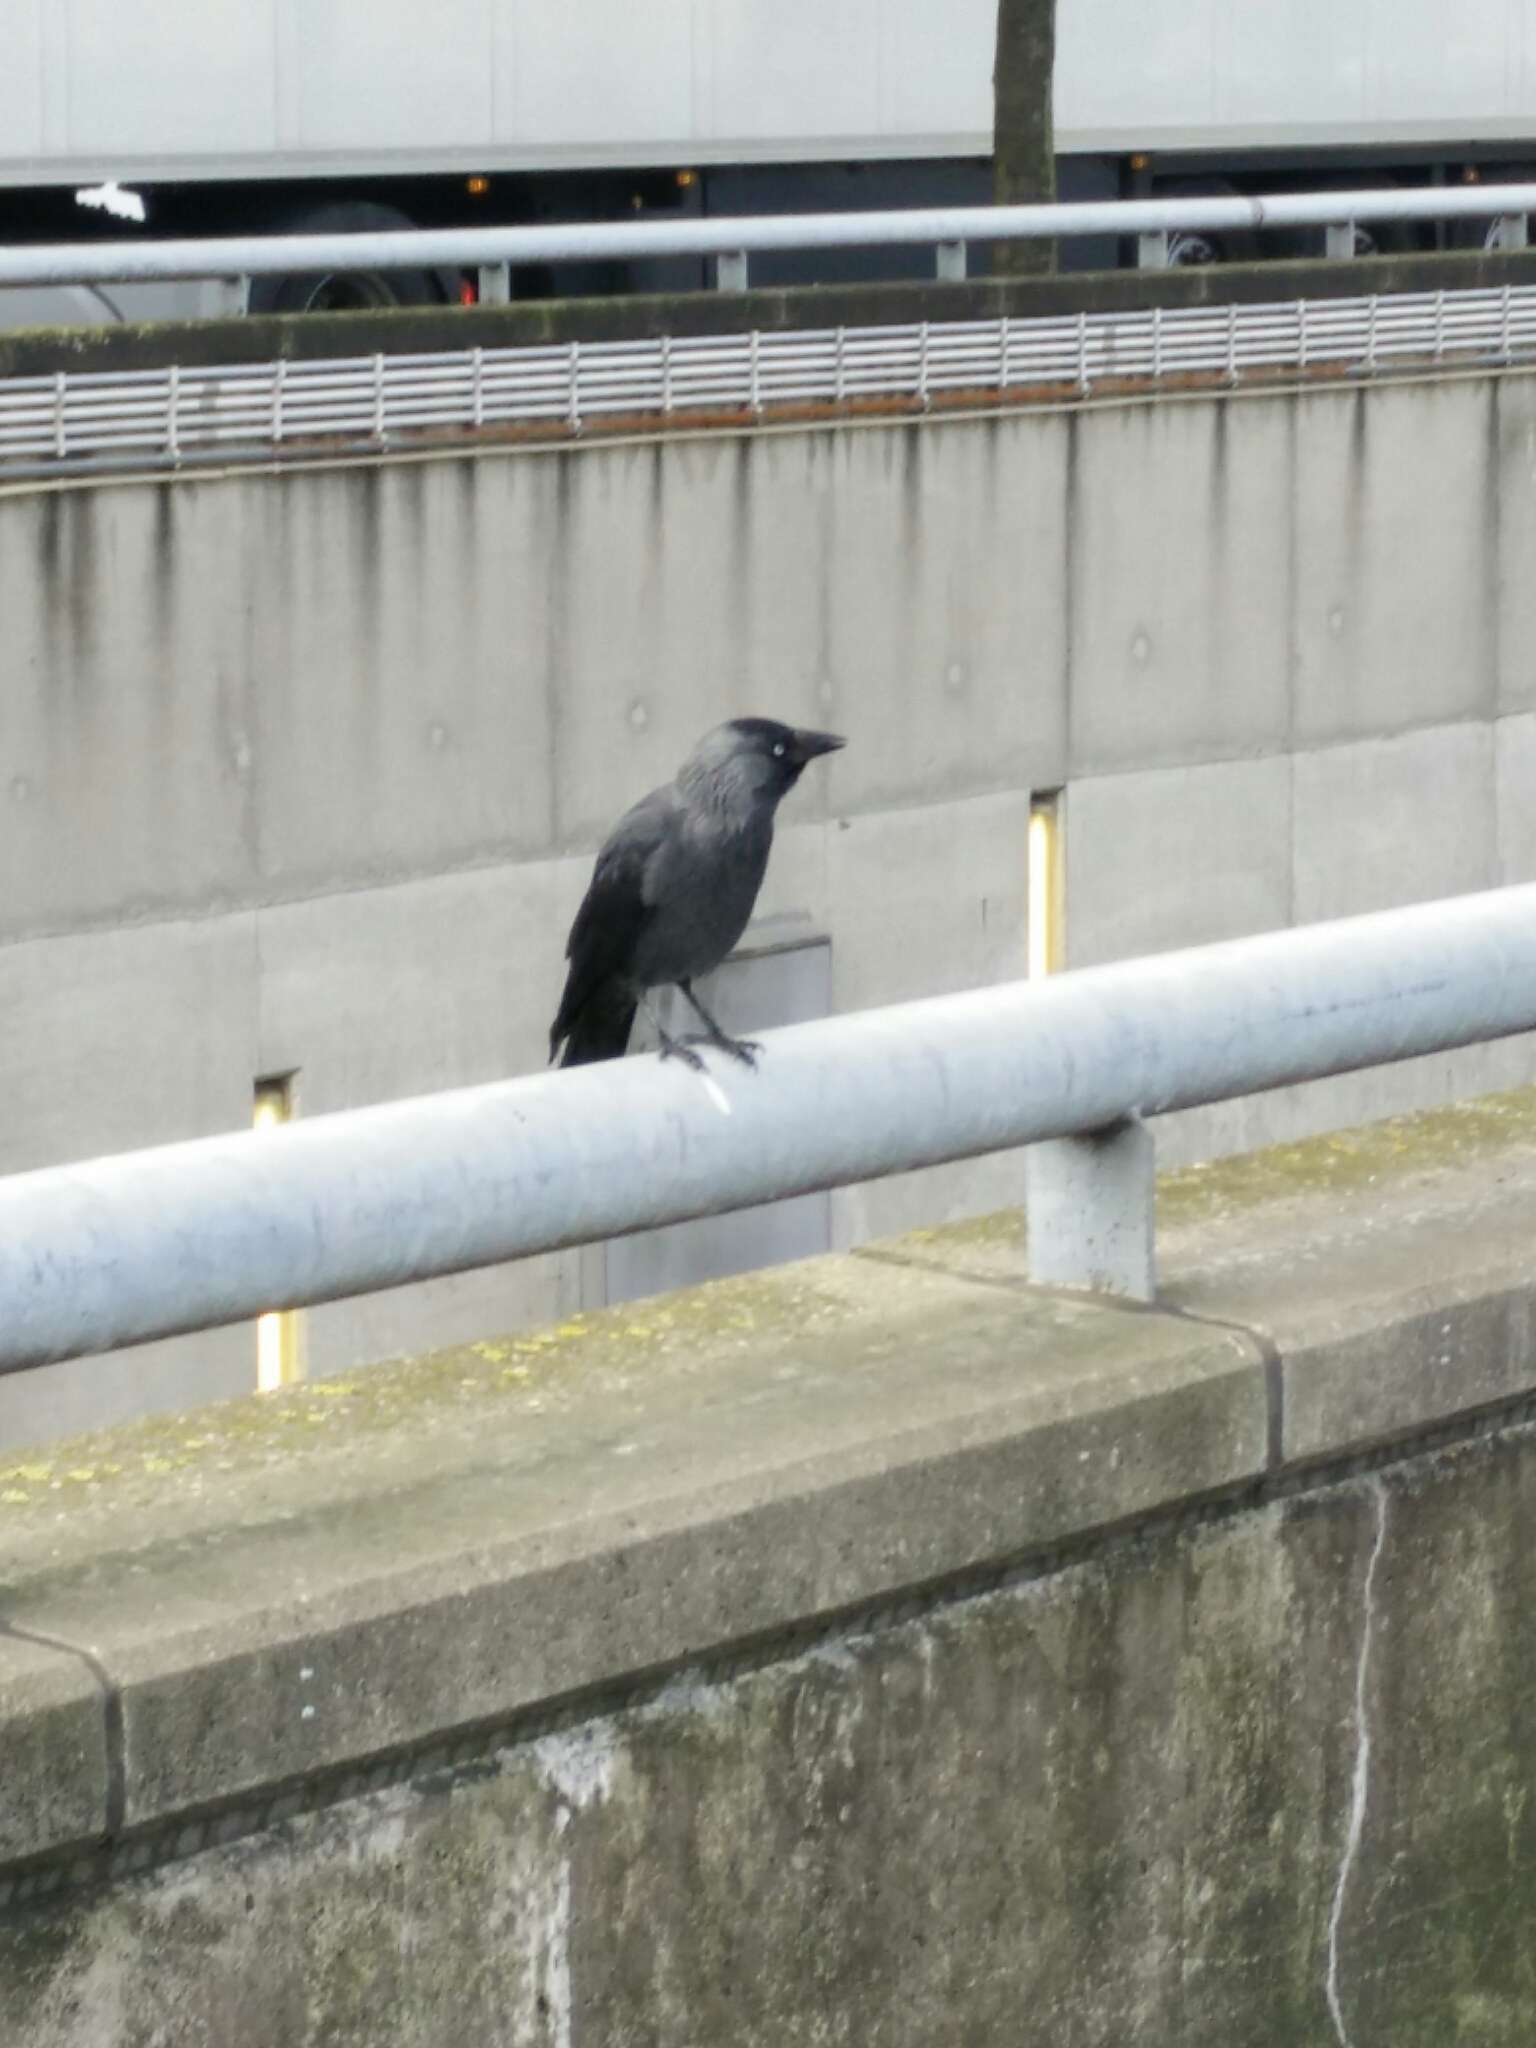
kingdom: Animalia
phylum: Chordata
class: Aves
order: Passeriformes
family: Corvidae
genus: Coloeus
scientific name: Coloeus monedula
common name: Western jackdaw
